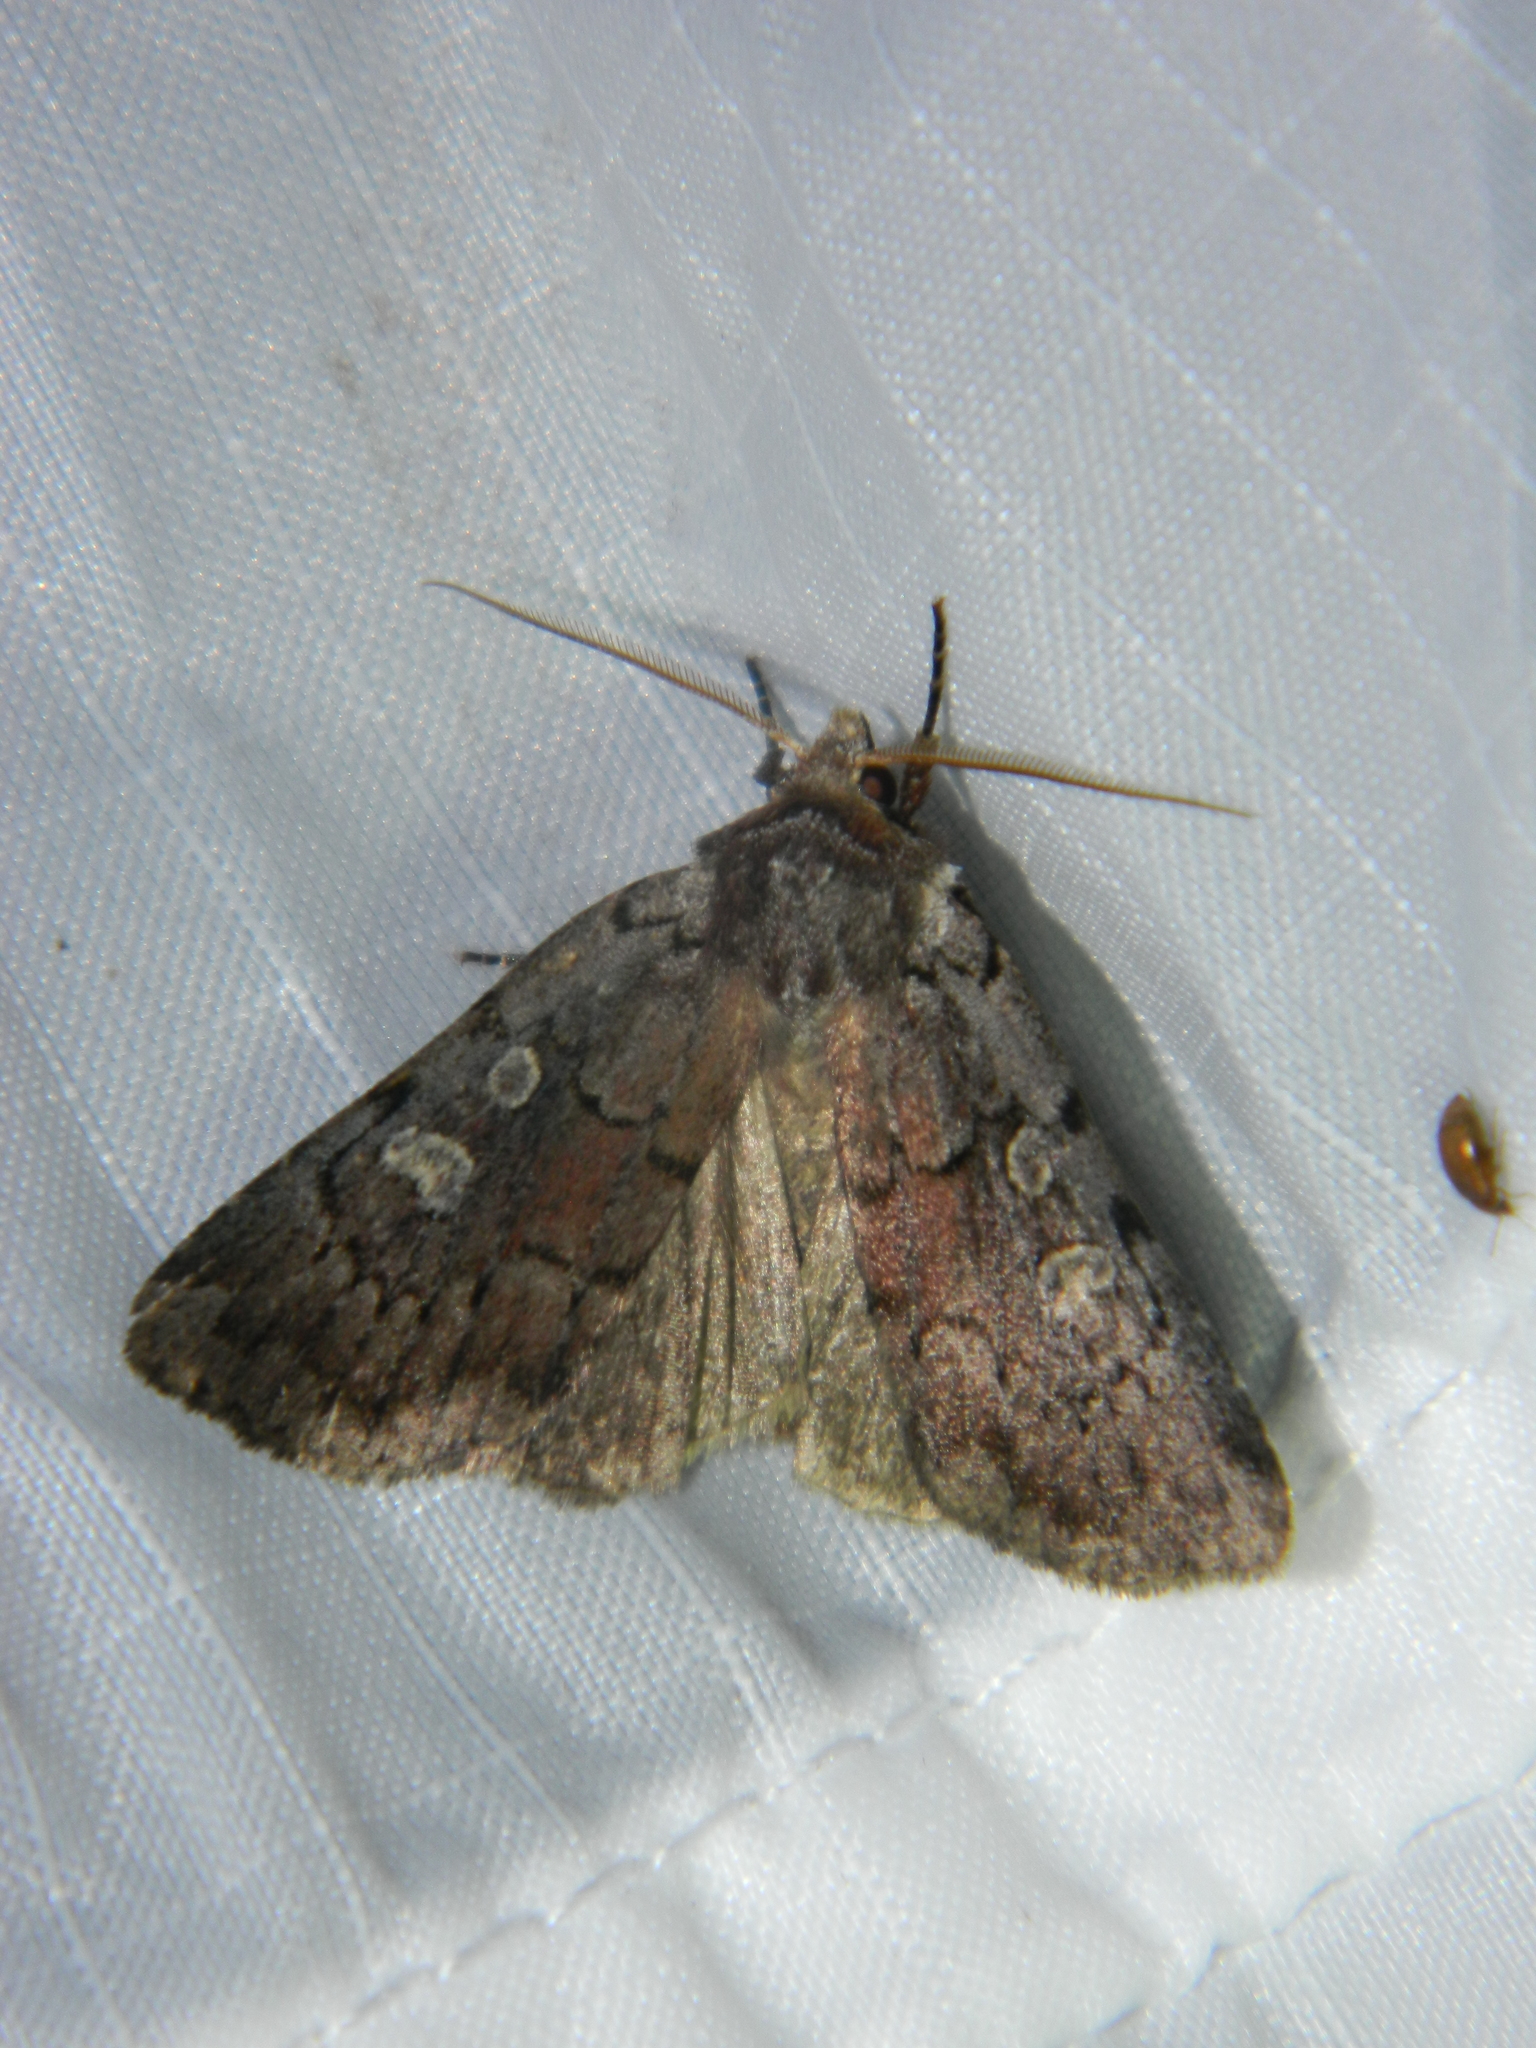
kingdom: Animalia
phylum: Arthropoda
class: Insecta
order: Lepidoptera
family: Noctuidae
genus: Xestia
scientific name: Xestia dilucida
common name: Dull reddish dart
